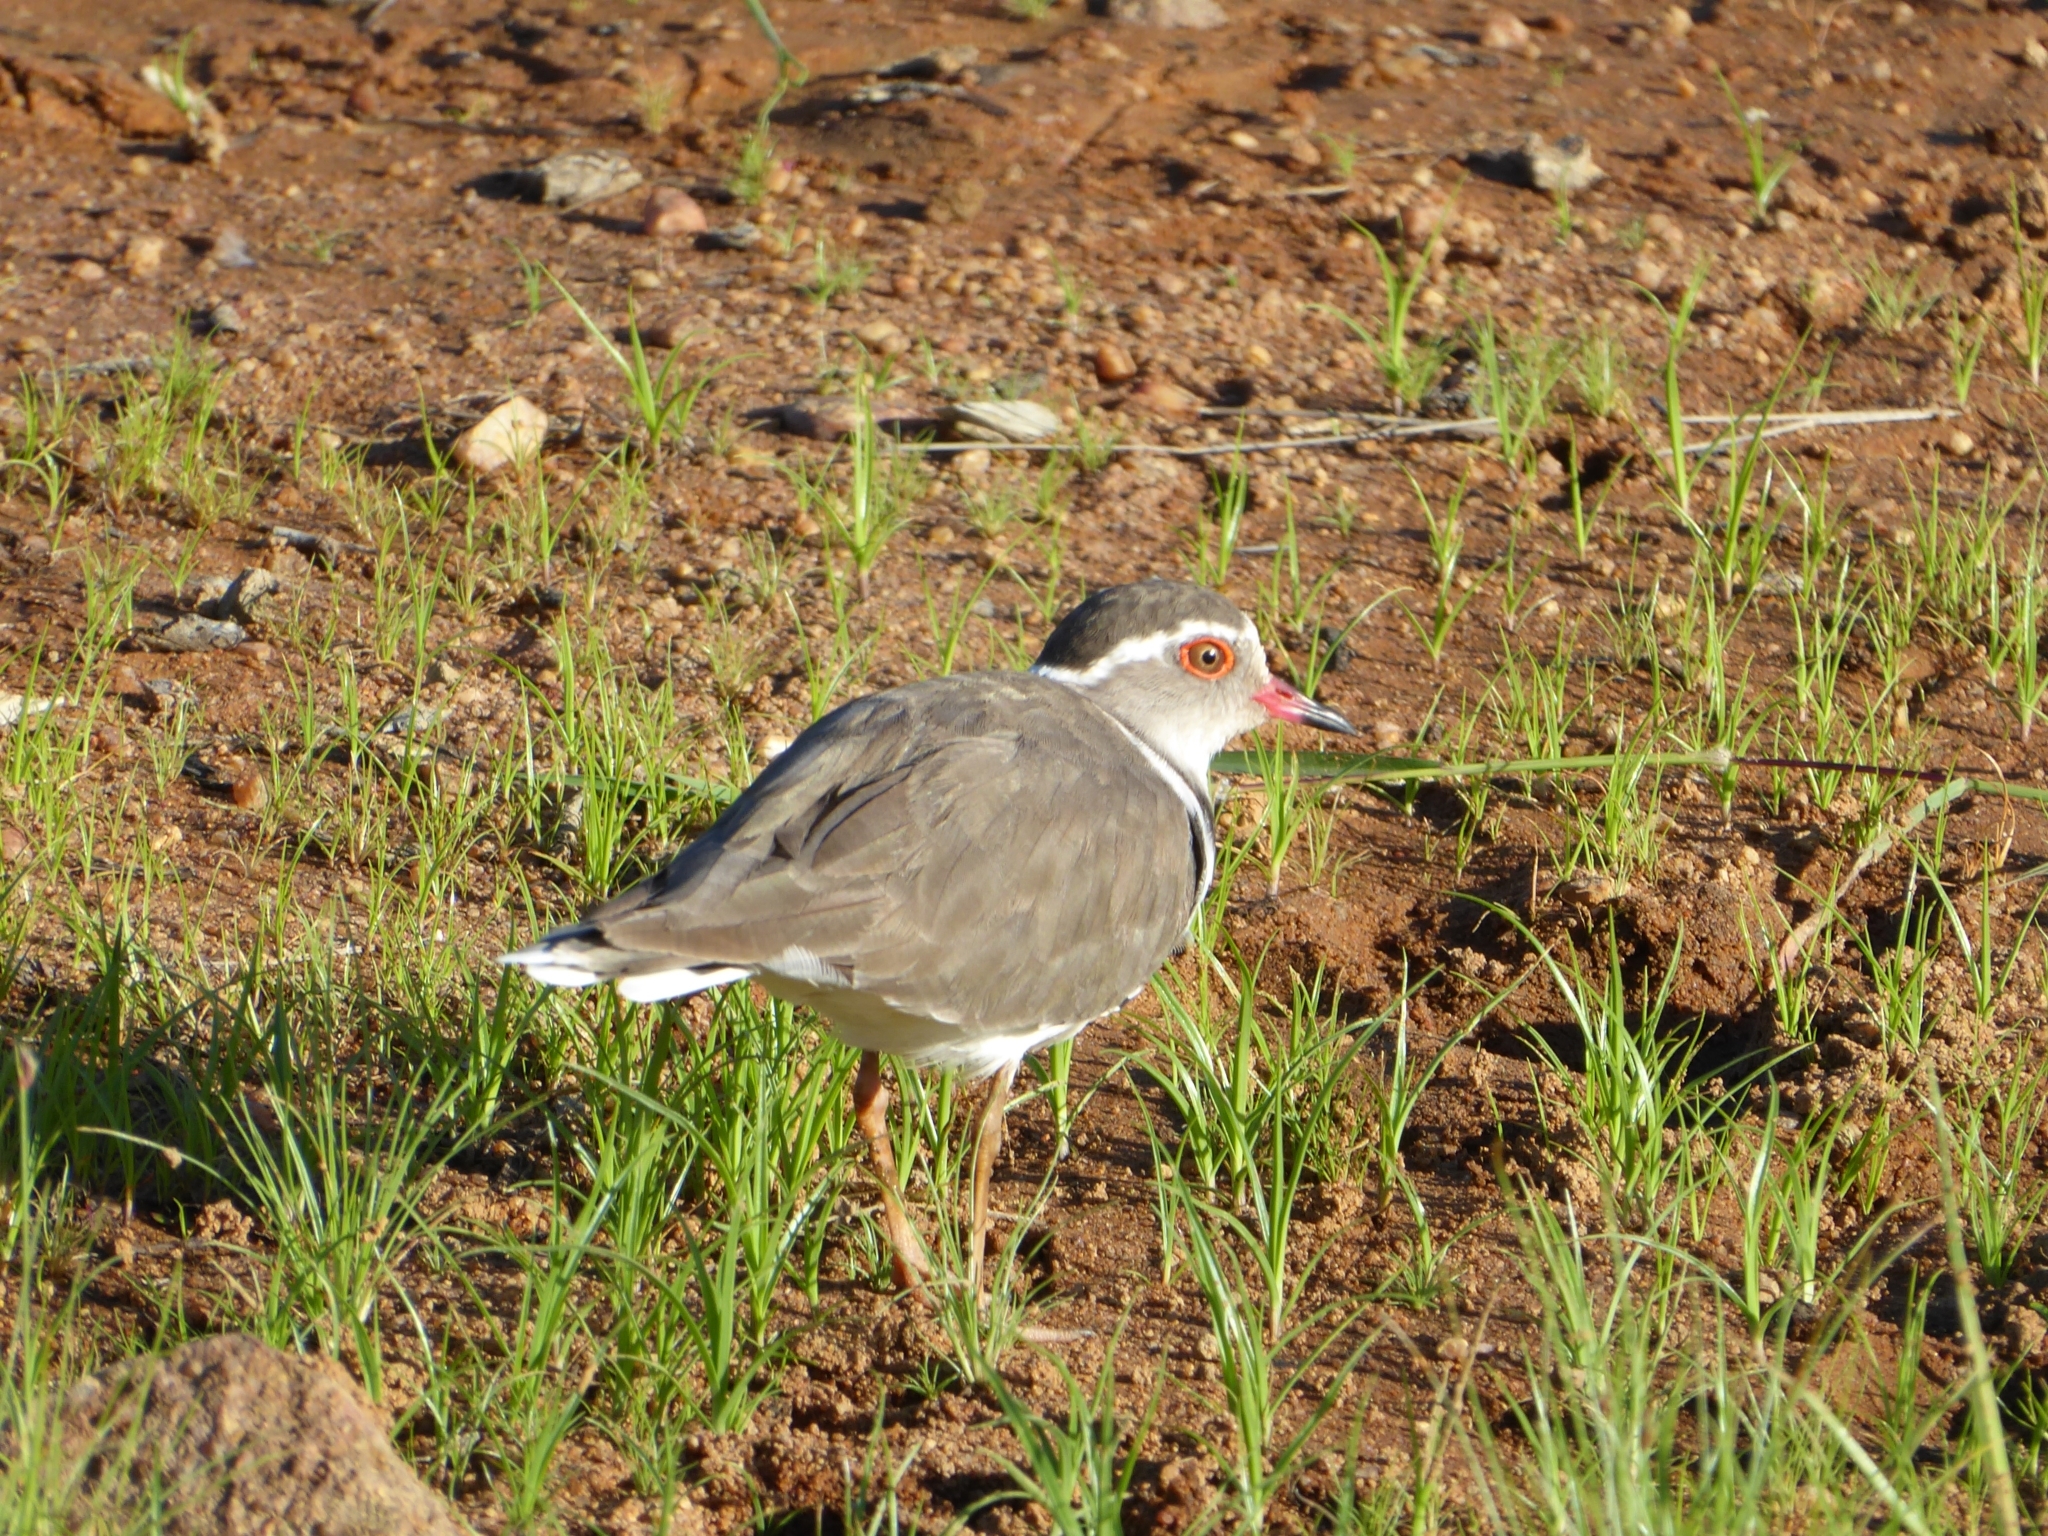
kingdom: Animalia
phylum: Chordata
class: Aves
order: Charadriiformes
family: Charadriidae
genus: Charadrius
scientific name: Charadrius tricollaris
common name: Three-banded plover
